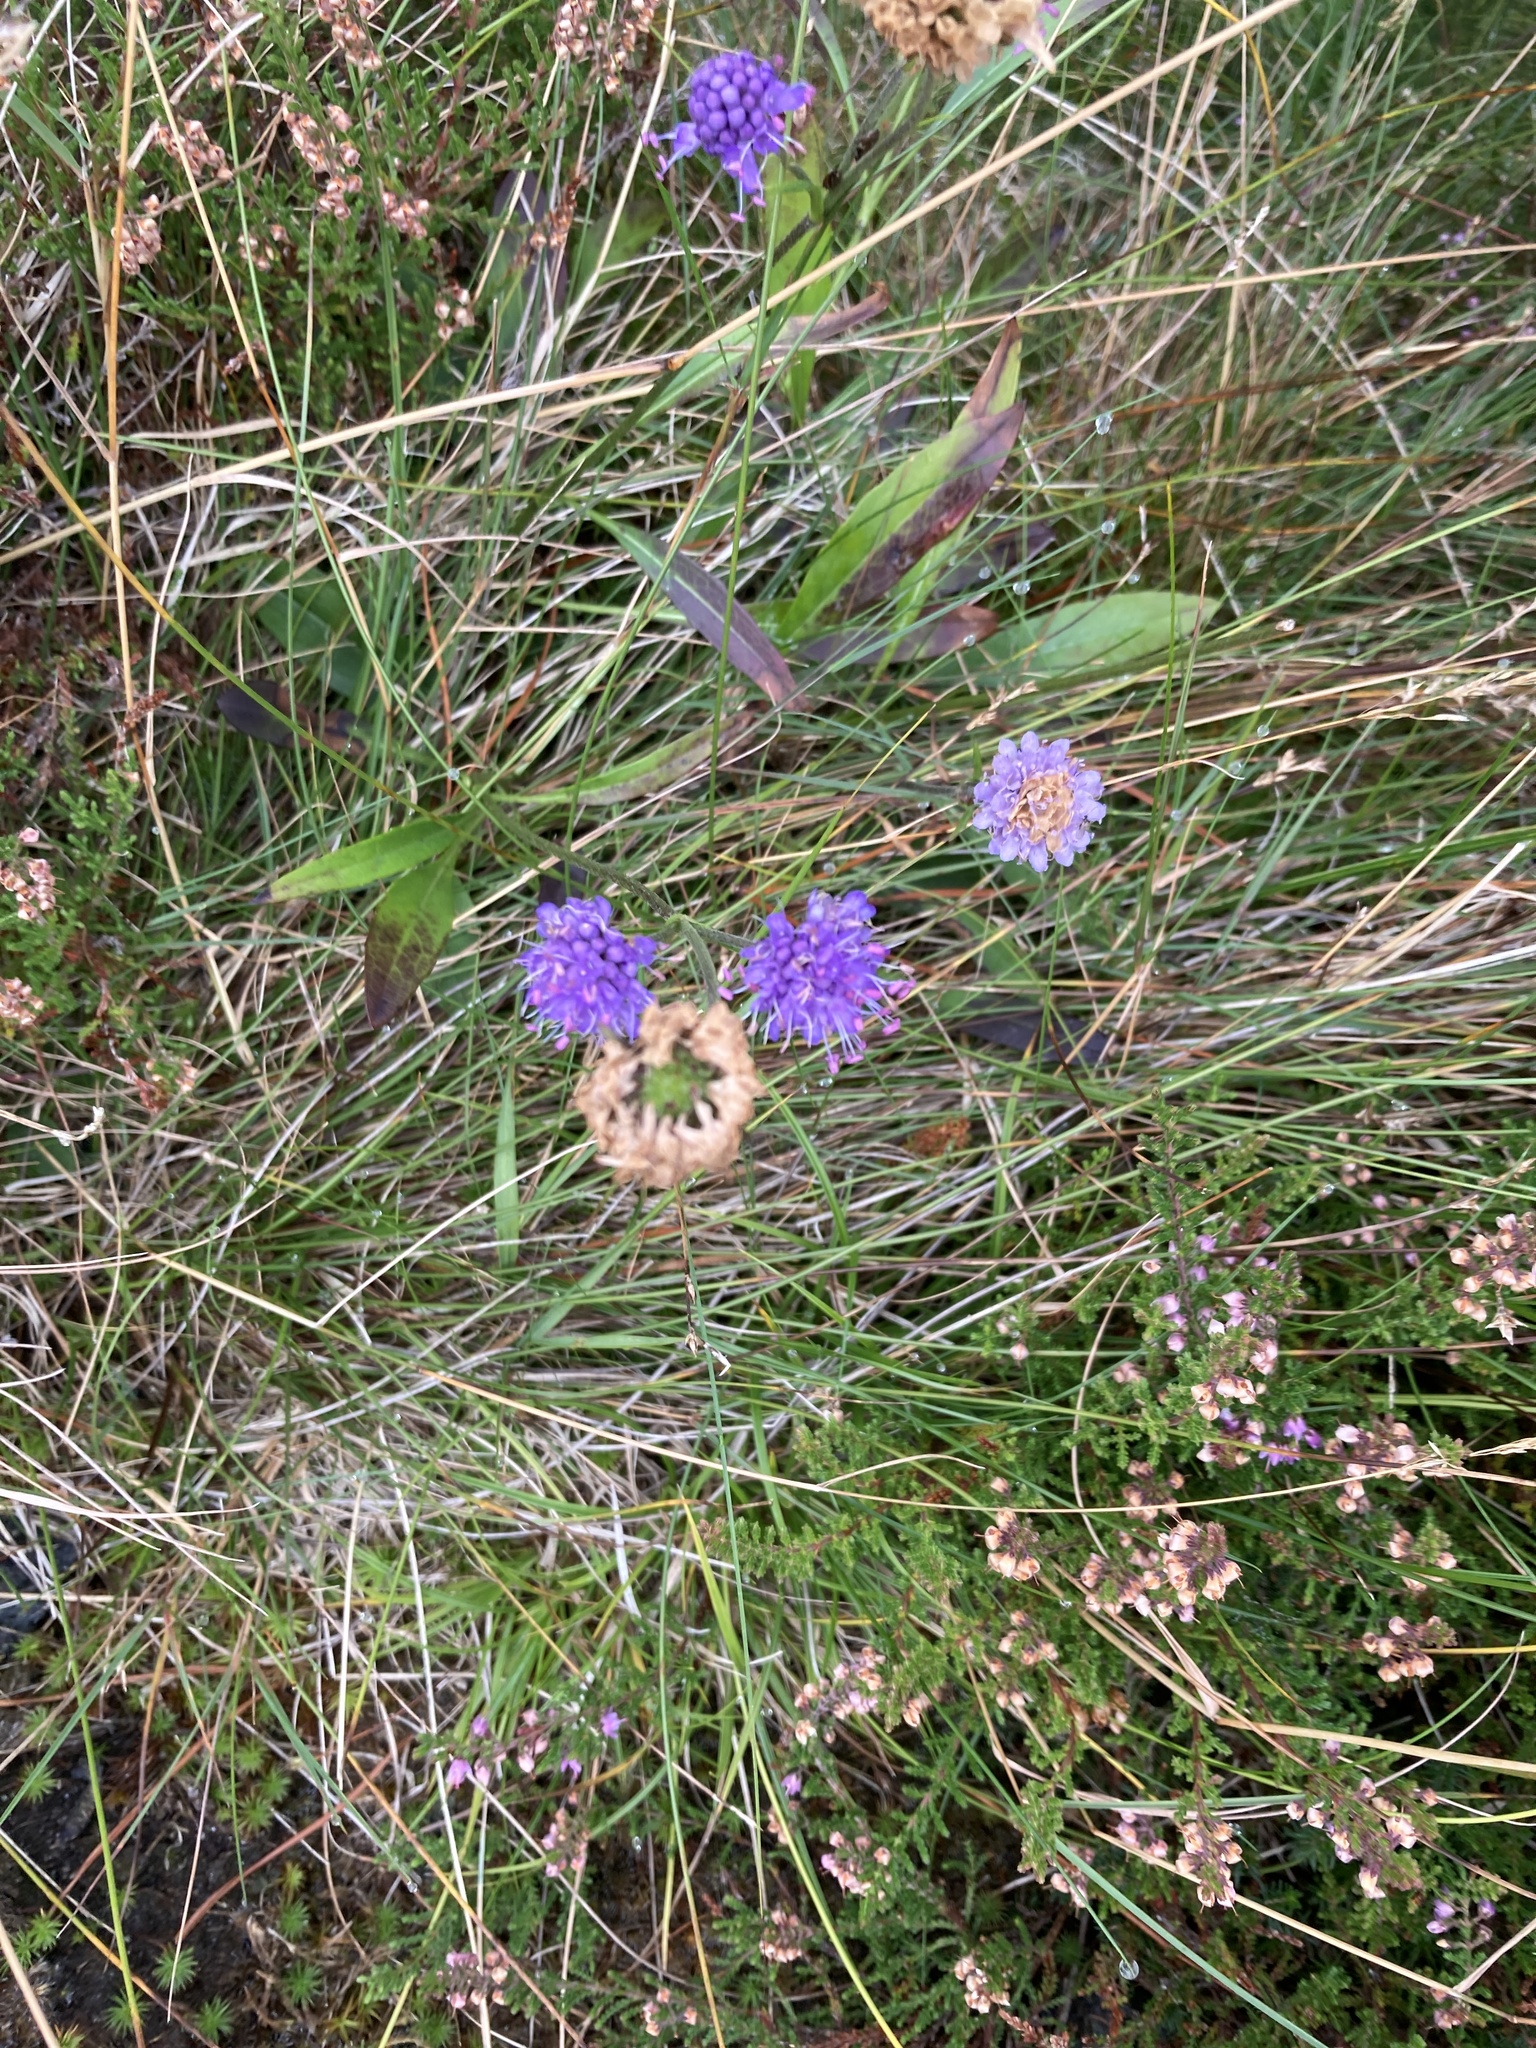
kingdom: Plantae
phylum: Tracheophyta
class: Magnoliopsida
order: Dipsacales
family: Caprifoliaceae
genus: Succisa
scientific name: Succisa pratensis
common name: Devil's-bit
